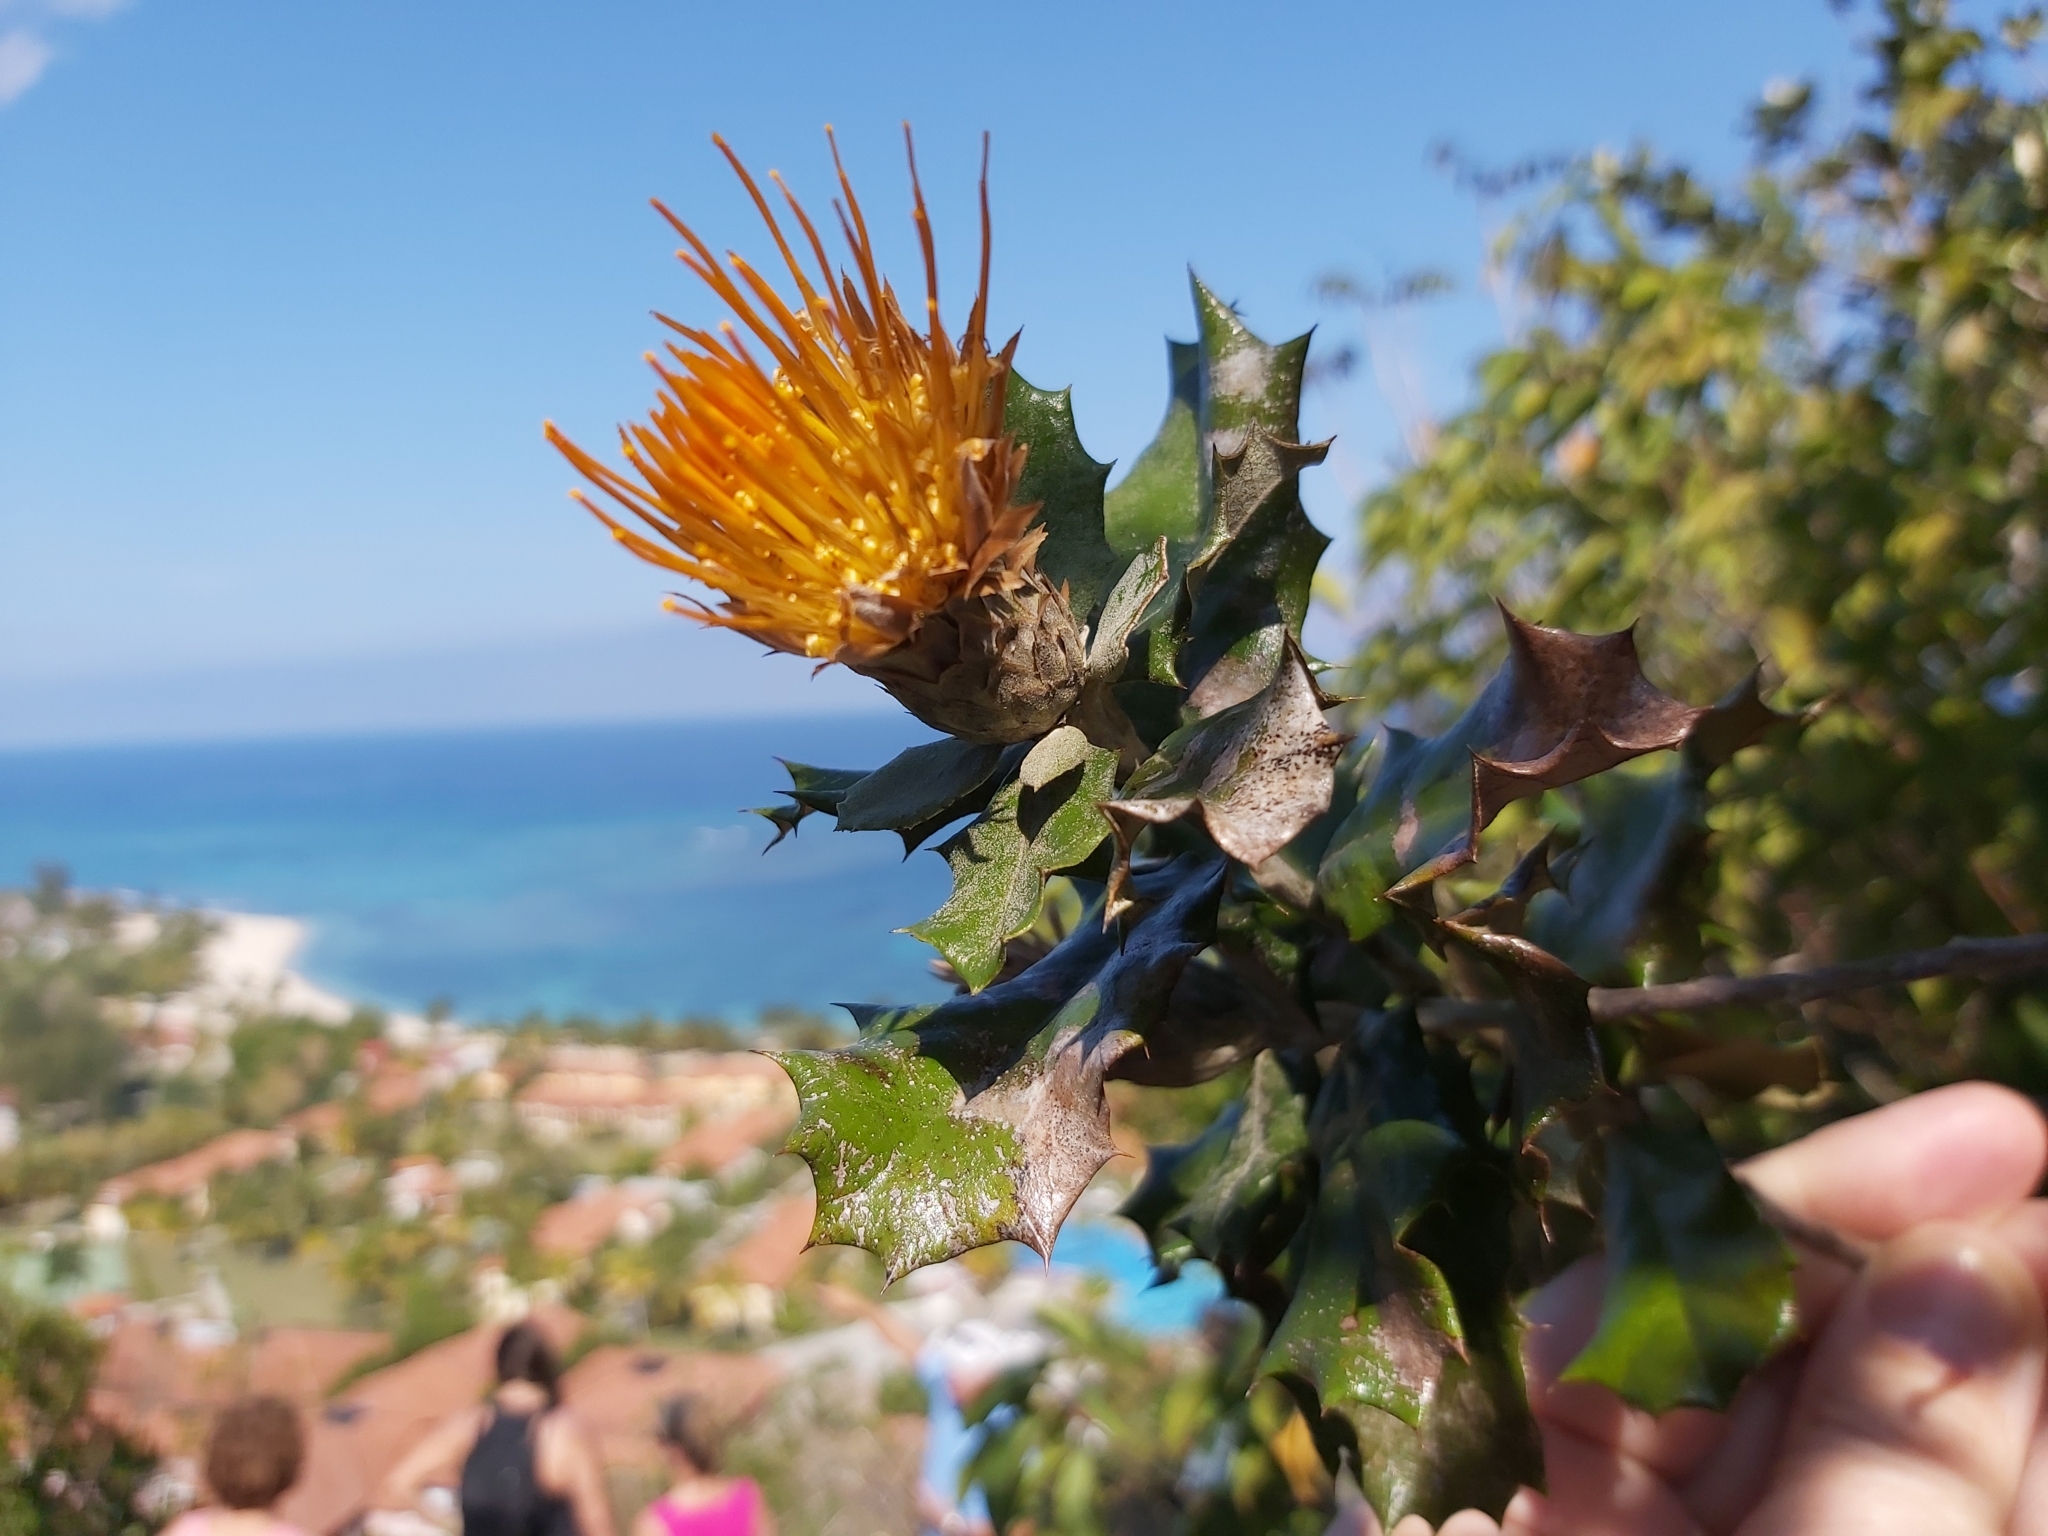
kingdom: Plantae
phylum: Tracheophyta
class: Magnoliopsida
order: Asterales
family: Asteraceae
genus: Anastraphia
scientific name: Anastraphia ilicifolia
